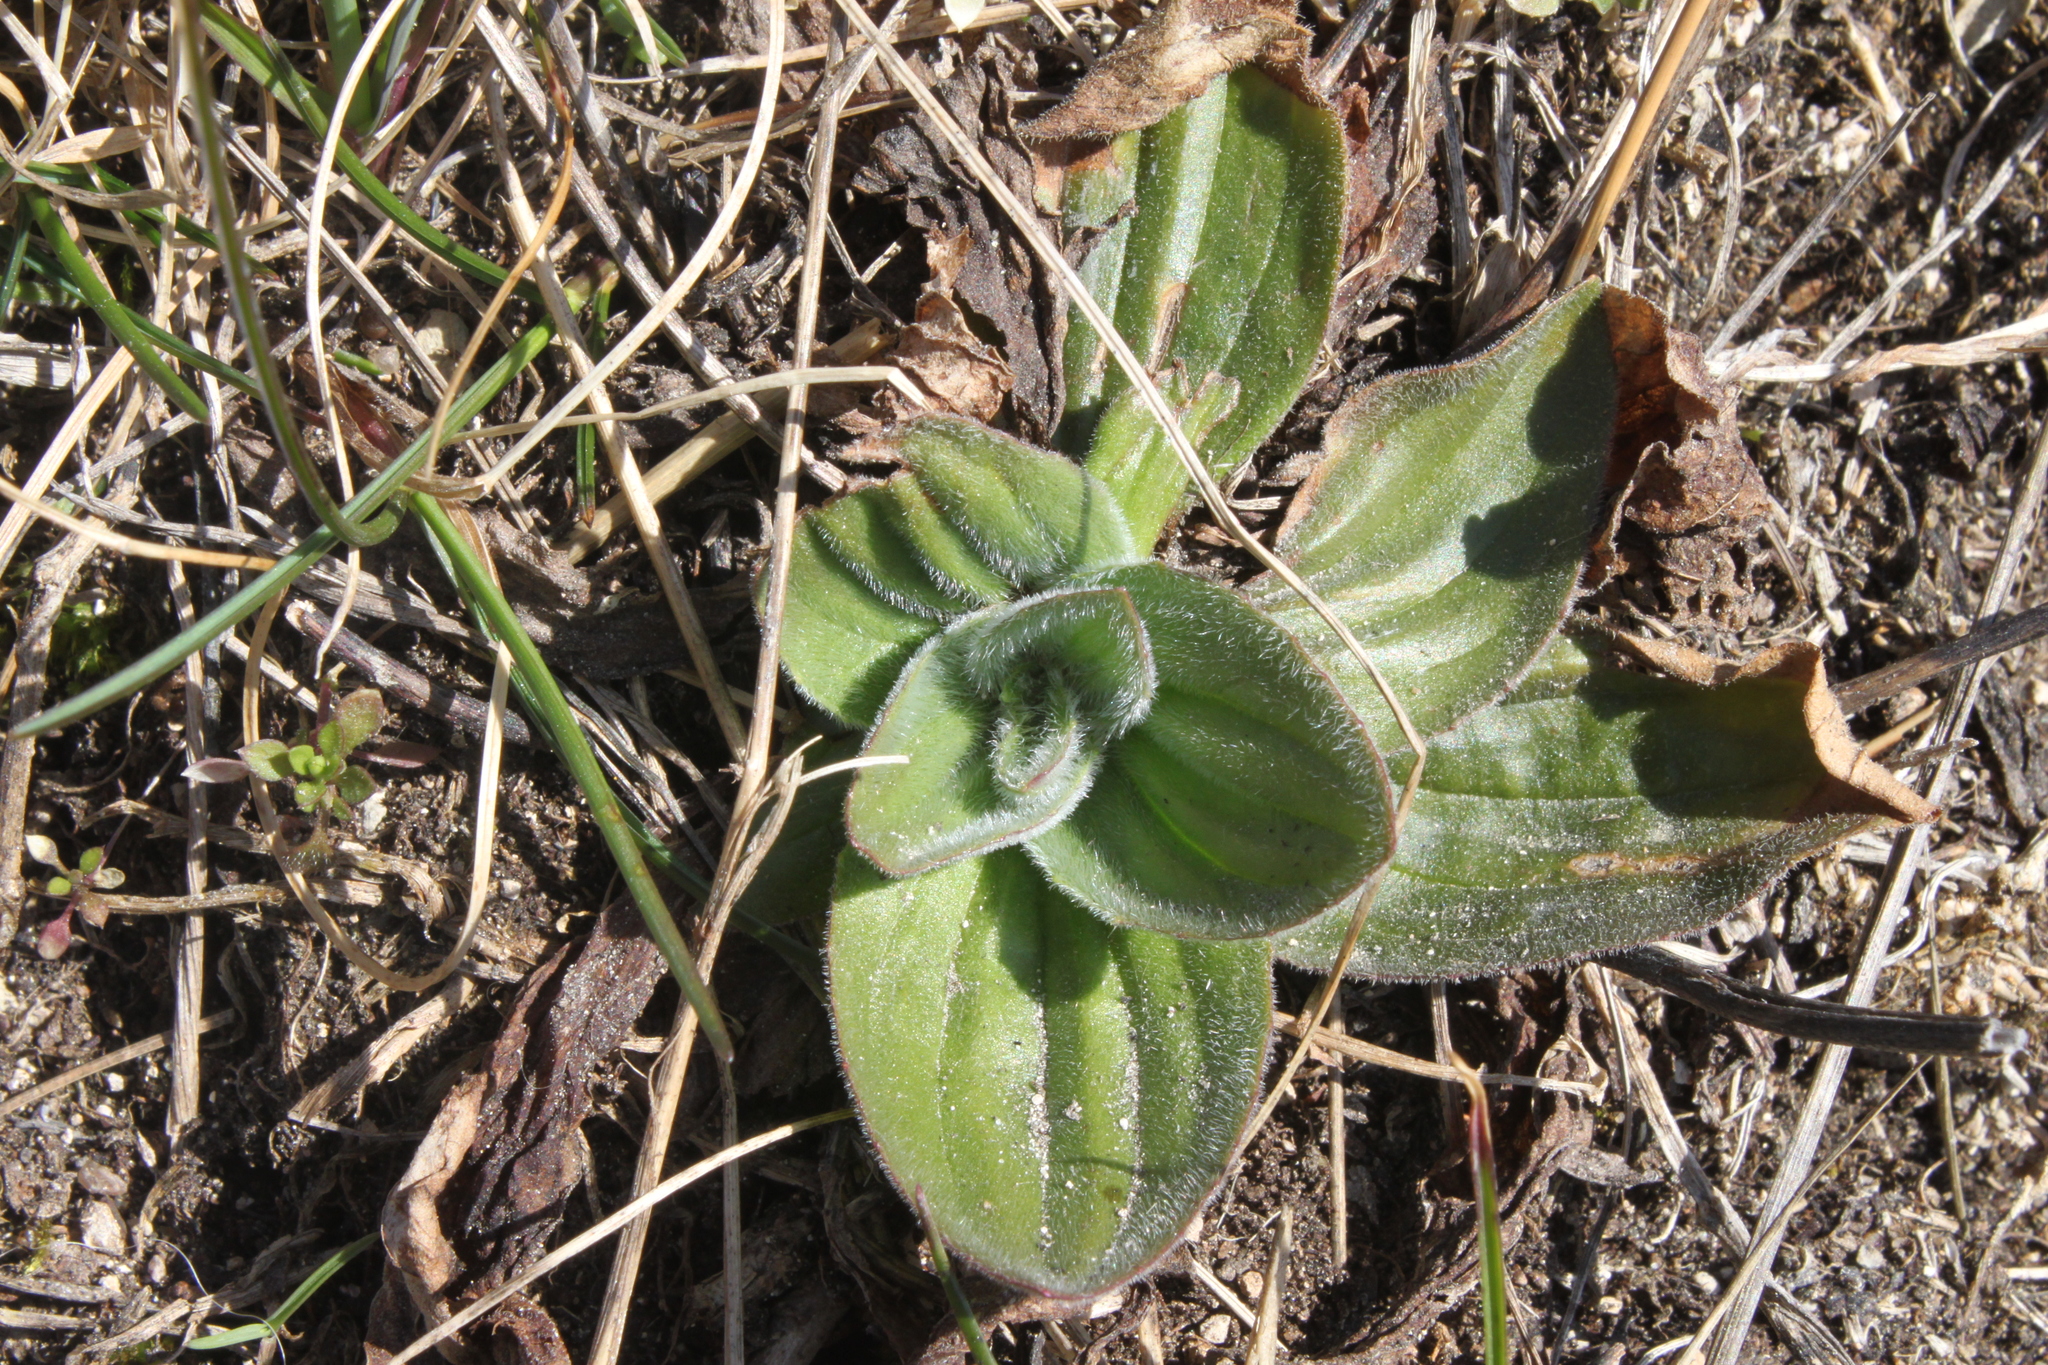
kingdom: Plantae
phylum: Tracheophyta
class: Magnoliopsida
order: Lamiales
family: Plantaginaceae
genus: Plantago
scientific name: Plantago media
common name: Hoary plantain
